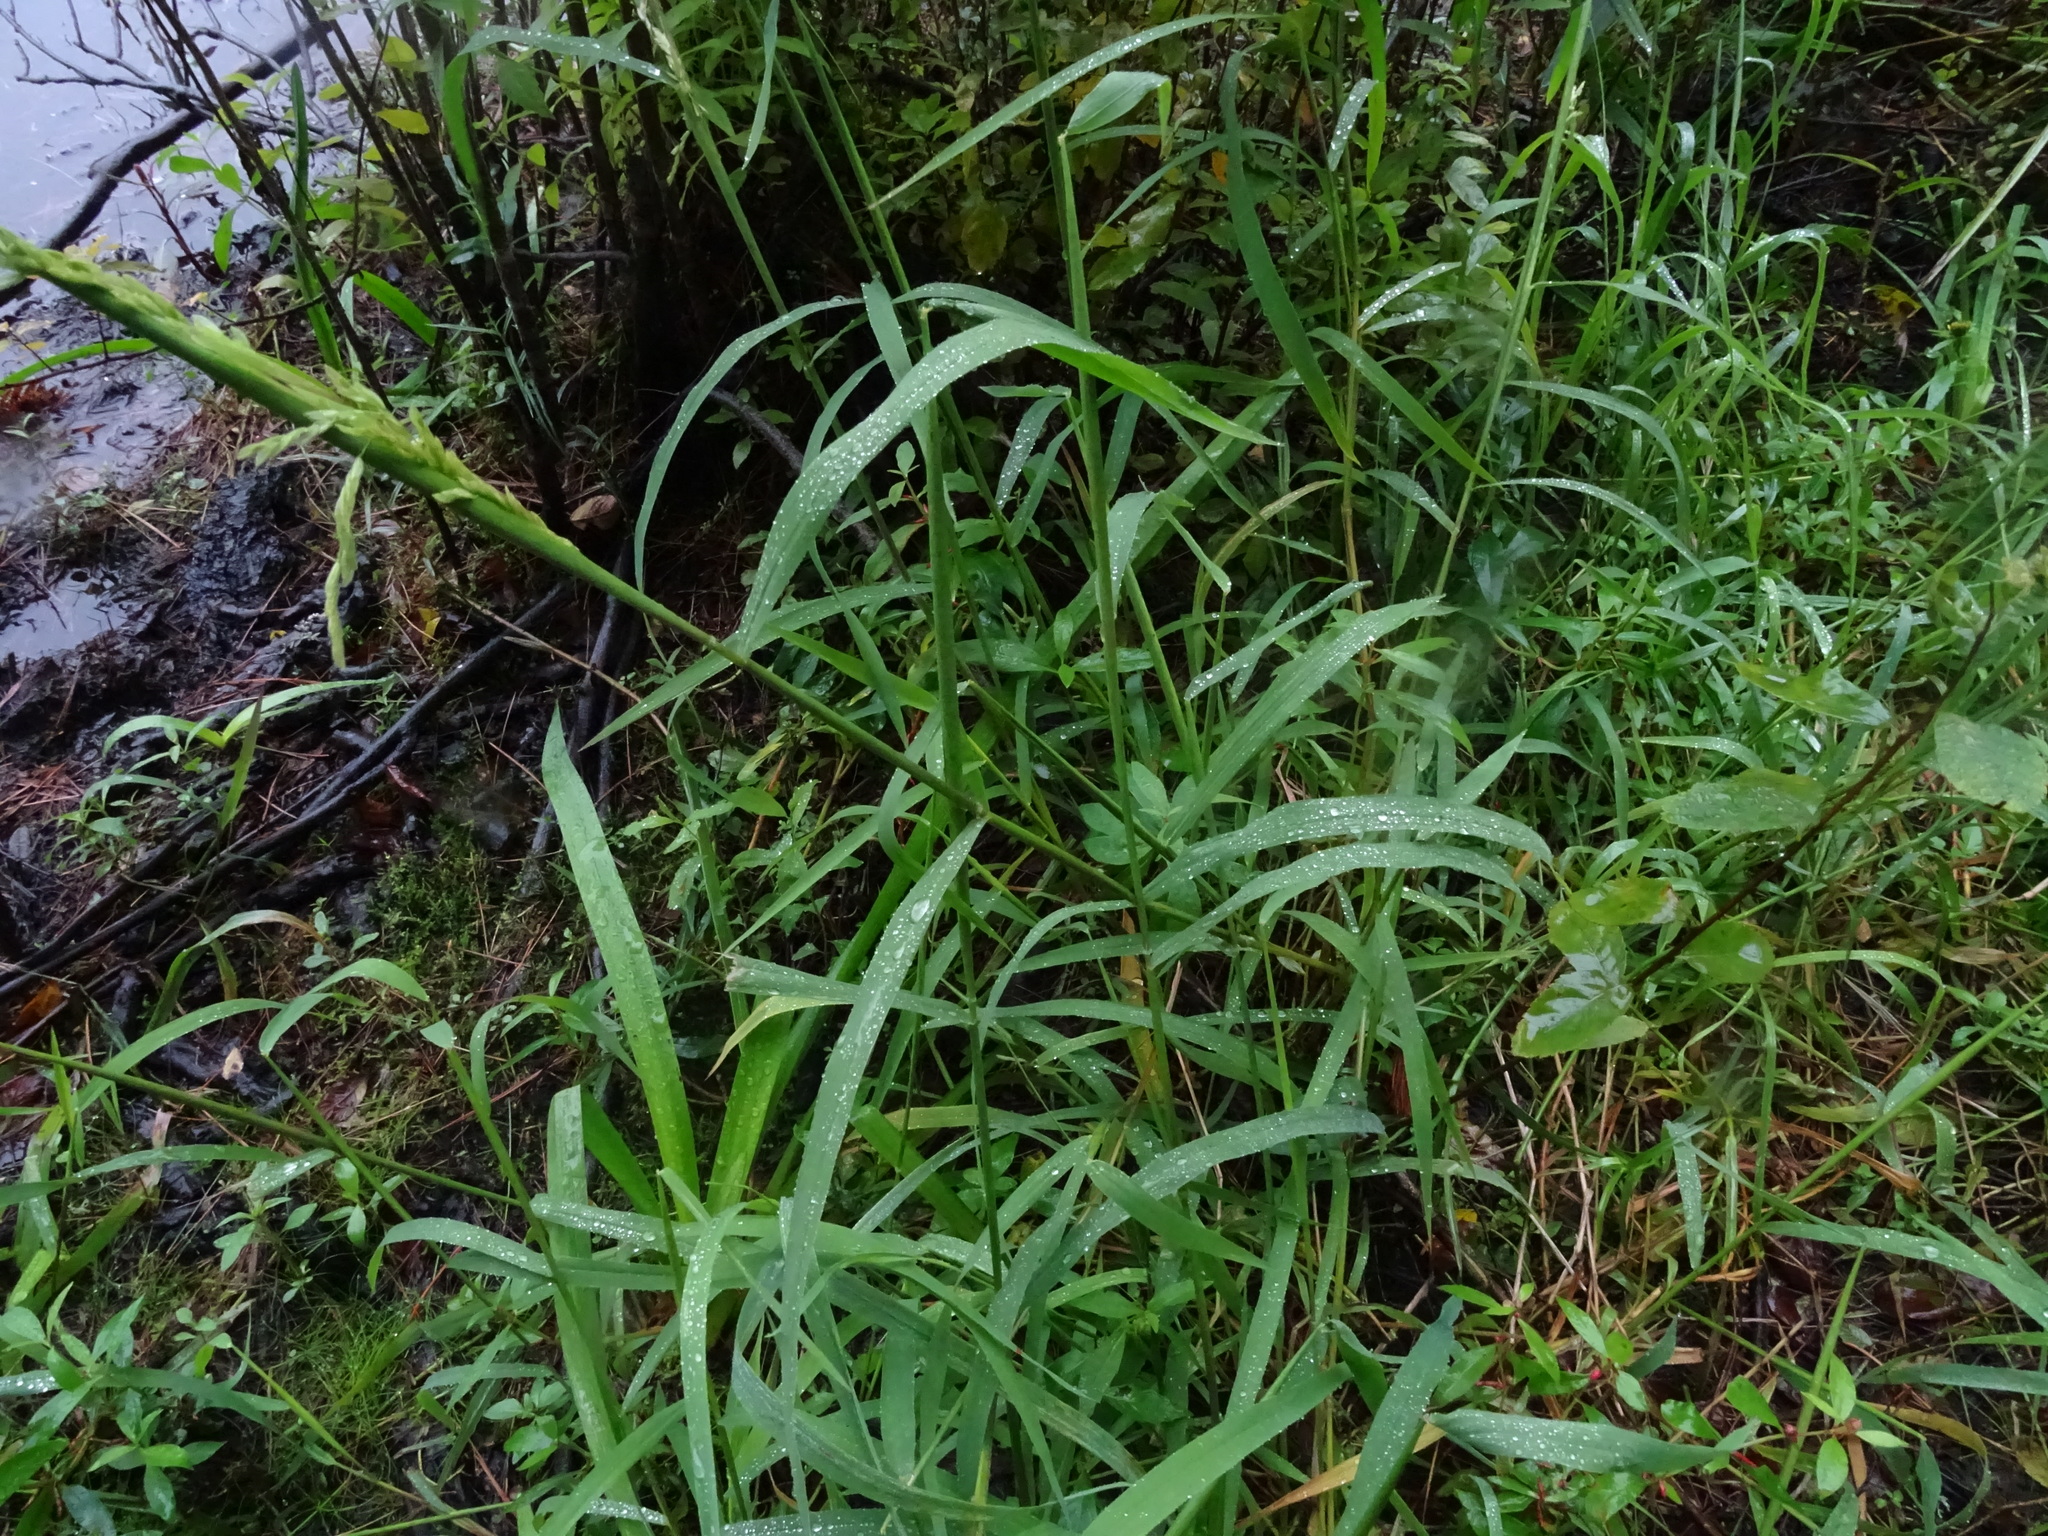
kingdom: Plantae
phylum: Tracheophyta
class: Liliopsida
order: Poales
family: Poaceae
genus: Leersia
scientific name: Leersia oryzoides
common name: Cut-grass
